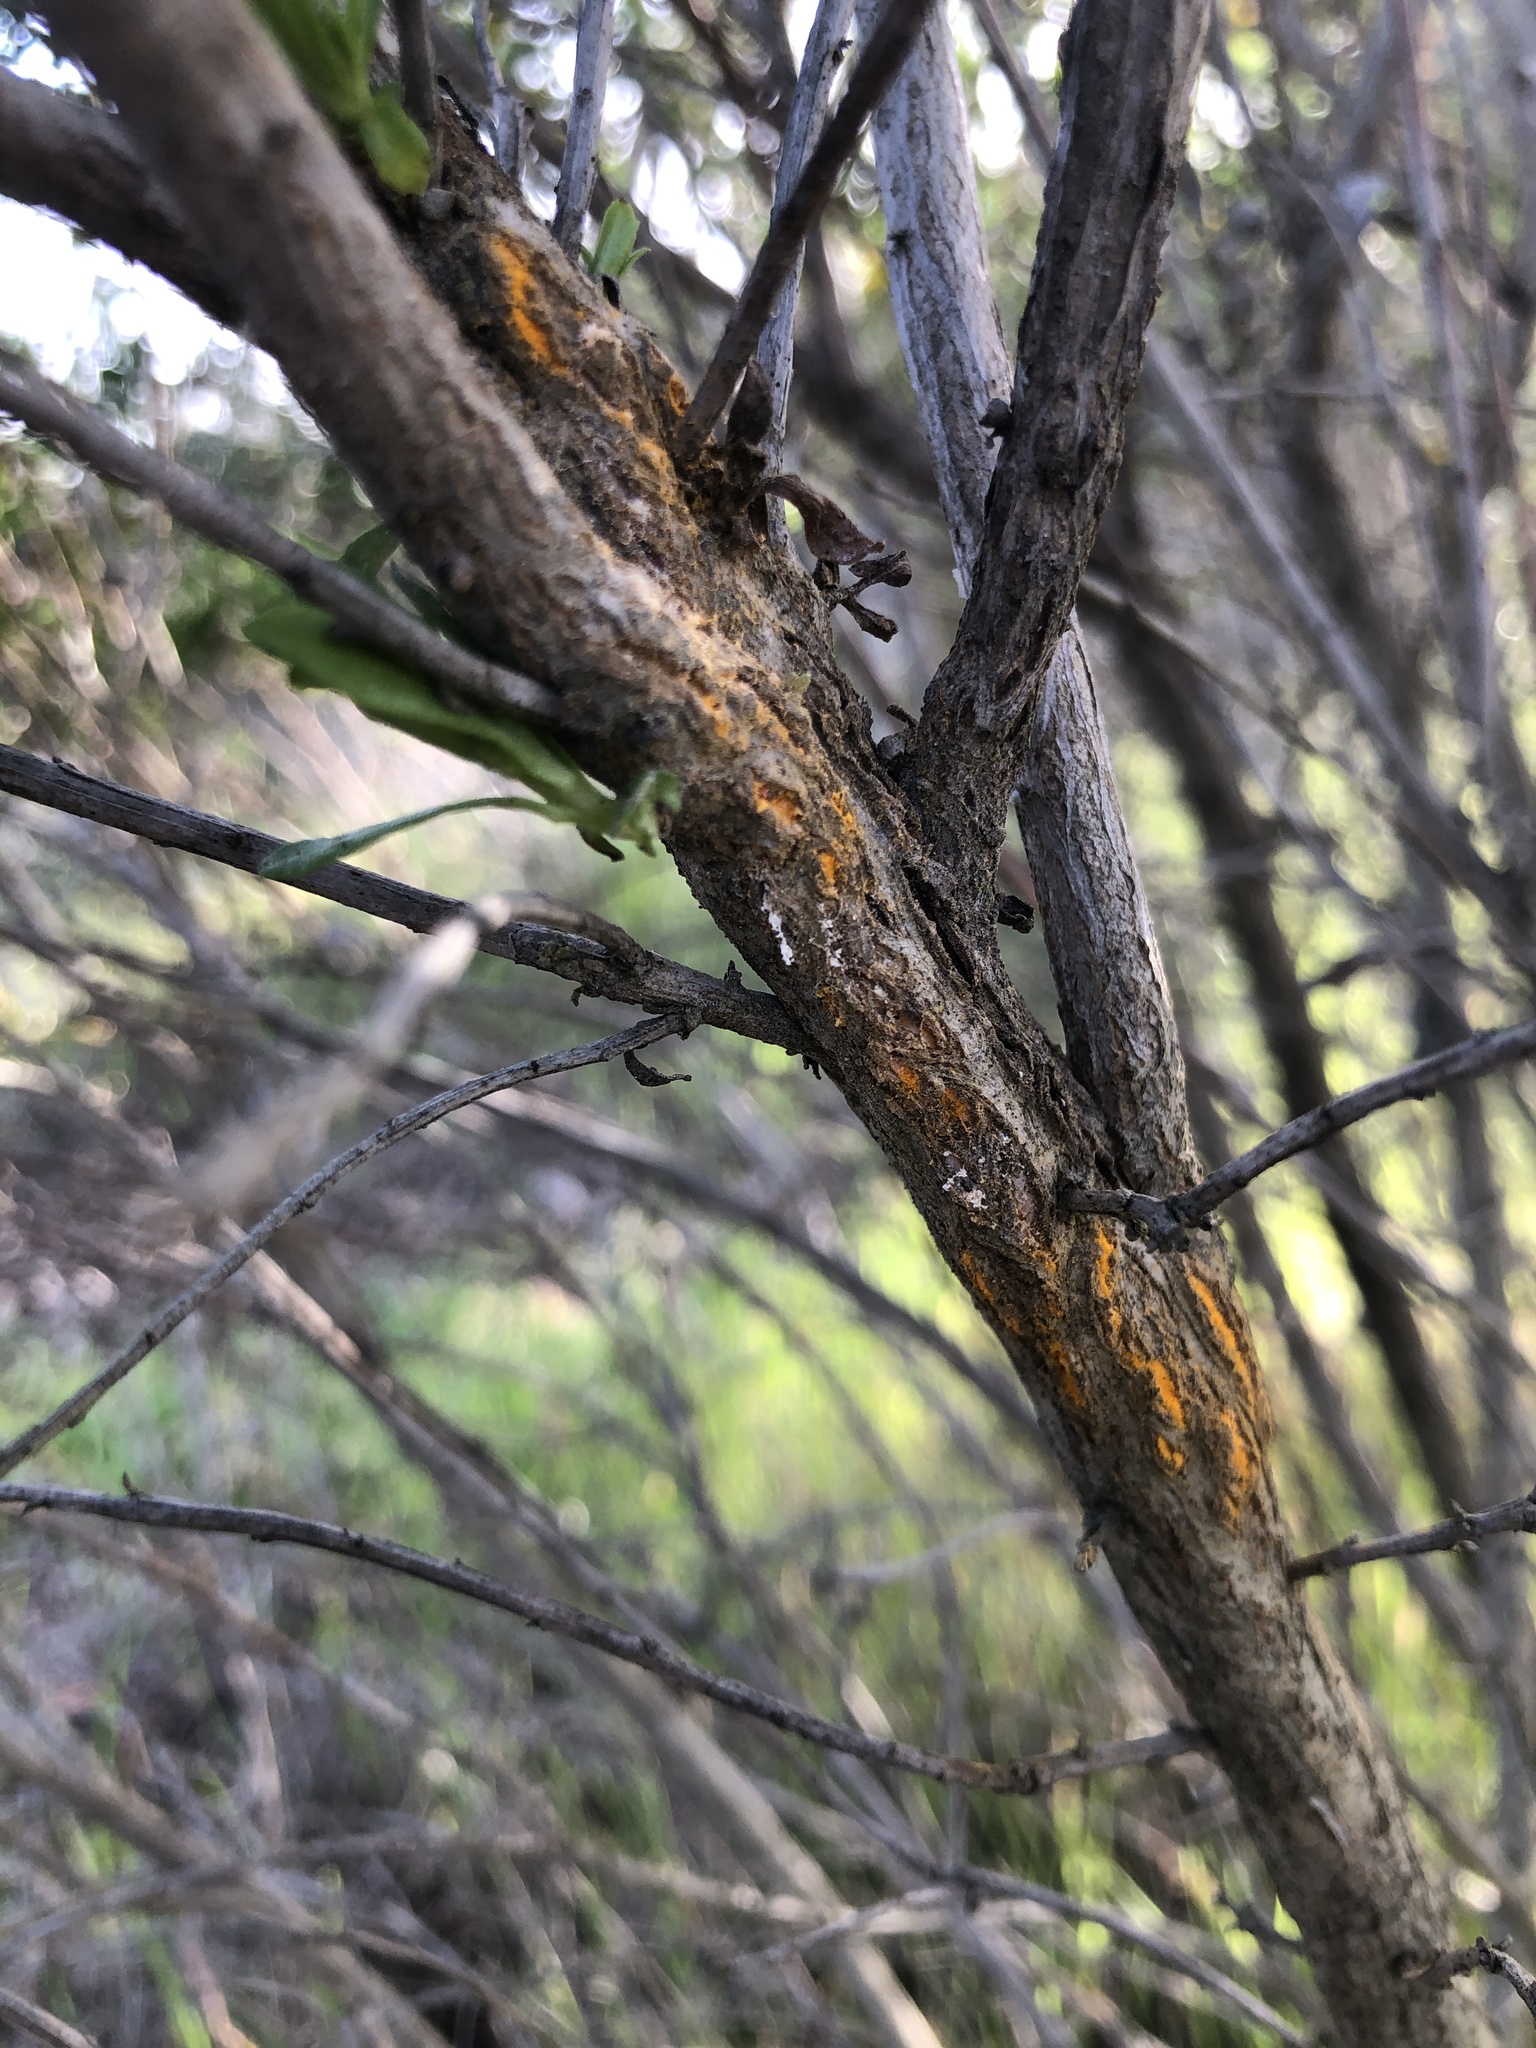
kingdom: Fungi
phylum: Basidiomycota
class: Pucciniomycetes
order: Pucciniales
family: Pucciniaceae
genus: Eriosporangium
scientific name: Eriosporangium evadens
